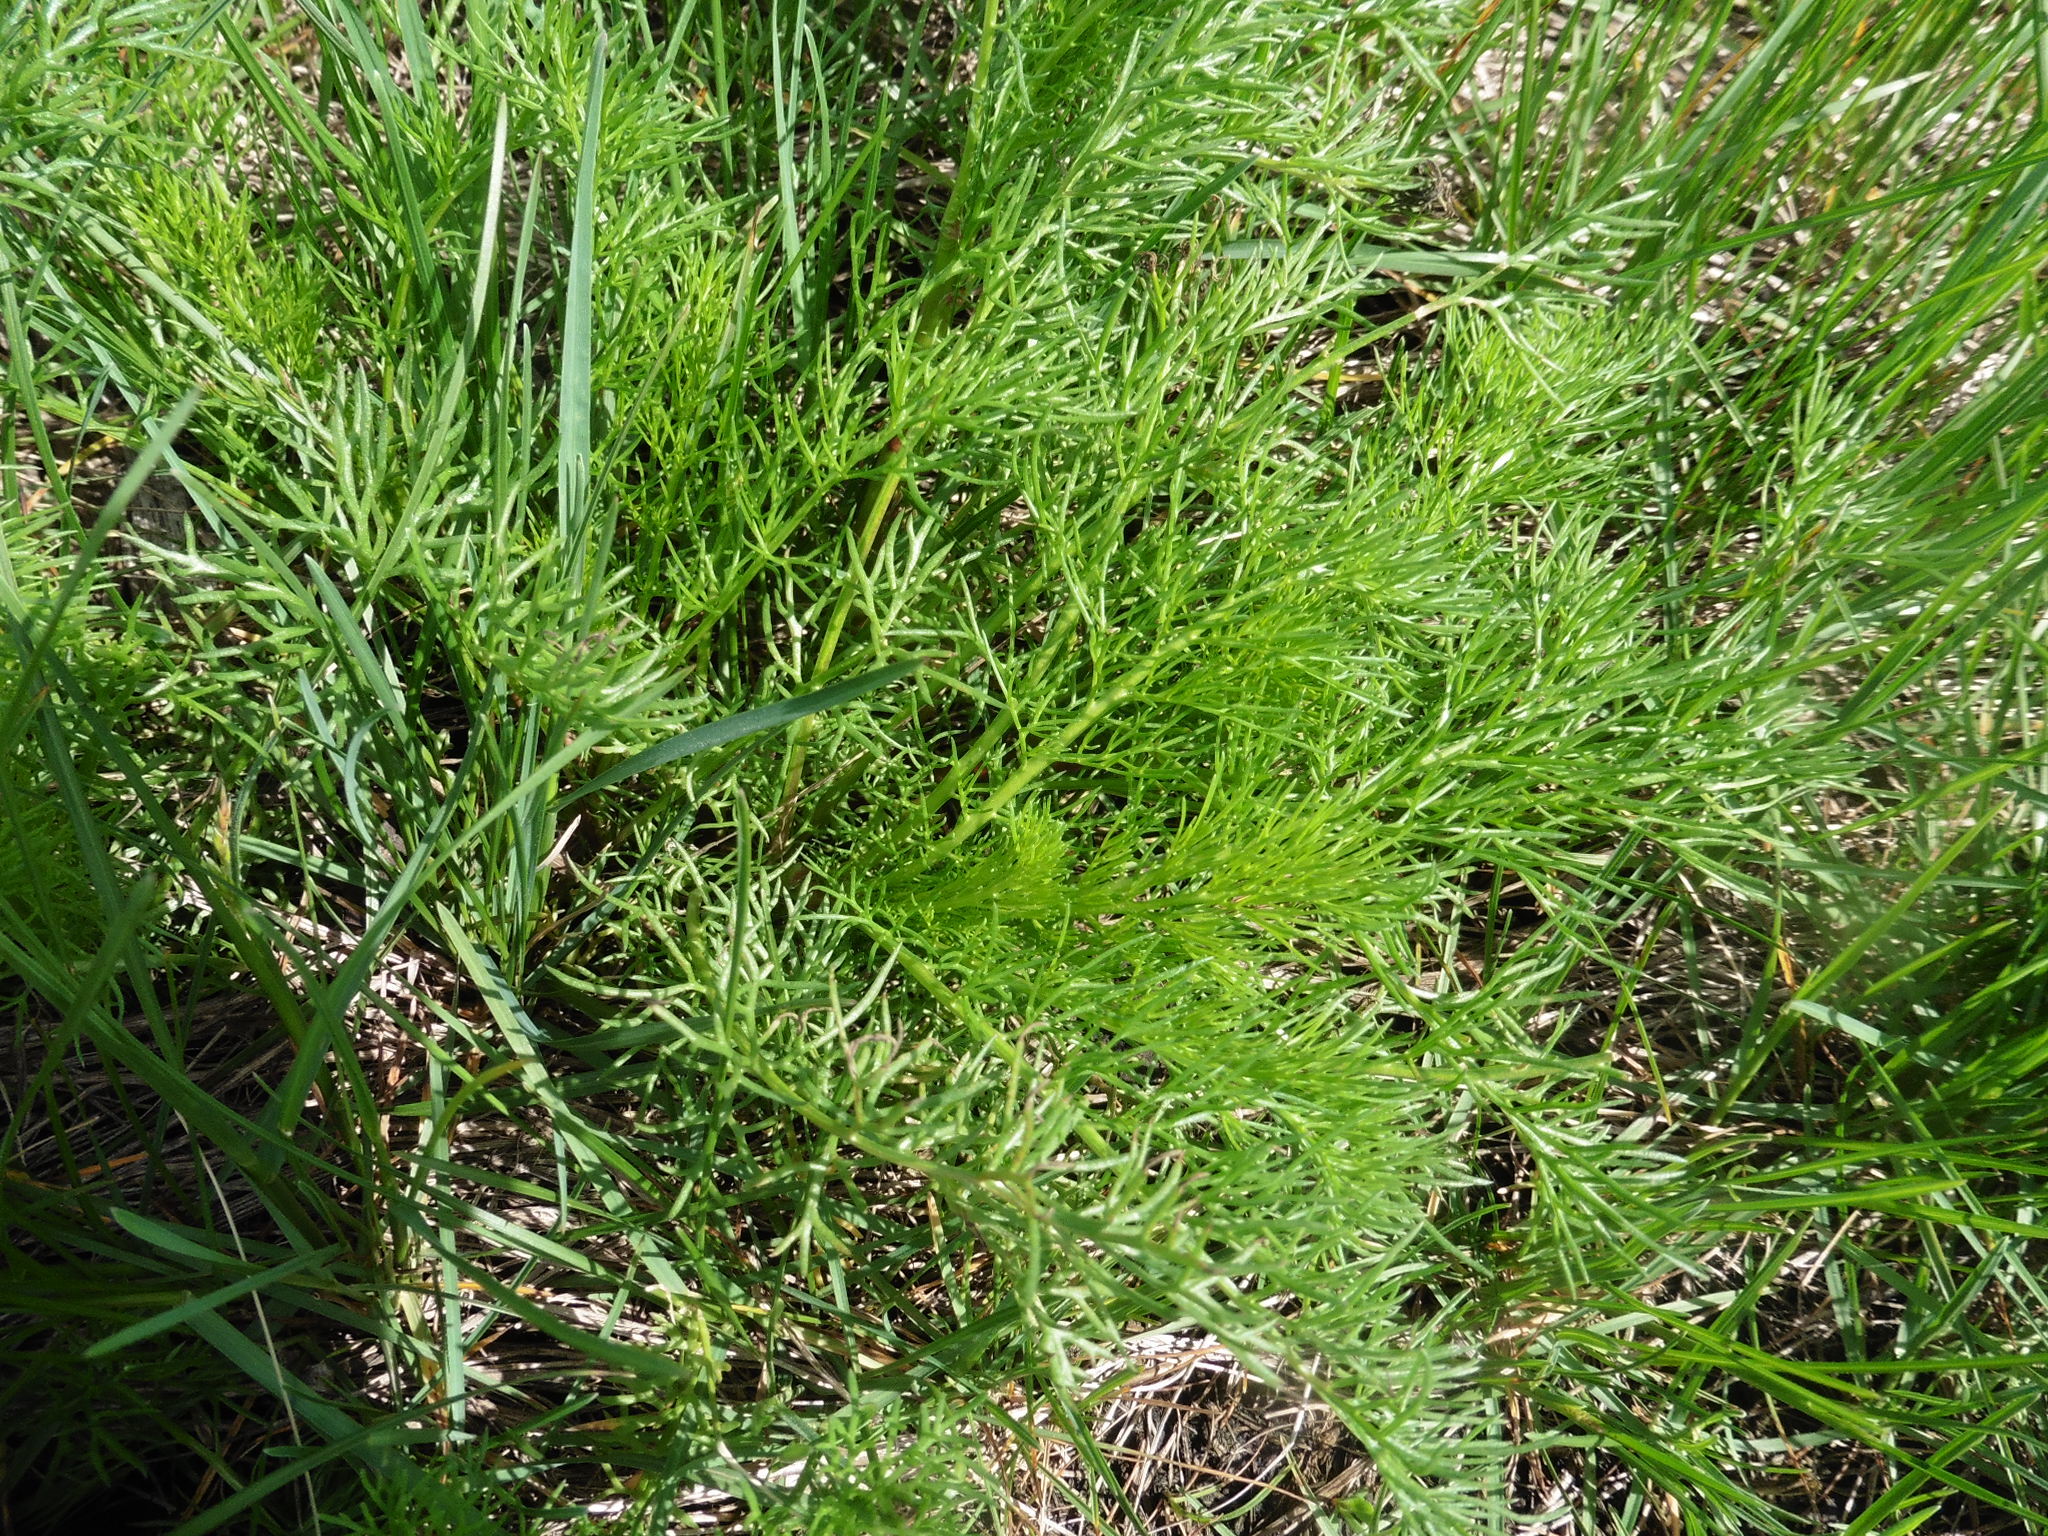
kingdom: Plantae
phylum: Tracheophyta
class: Magnoliopsida
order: Asterales
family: Asteraceae
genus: Tripleurospermum
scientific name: Tripleurospermum inodorum
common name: Scentless mayweed
